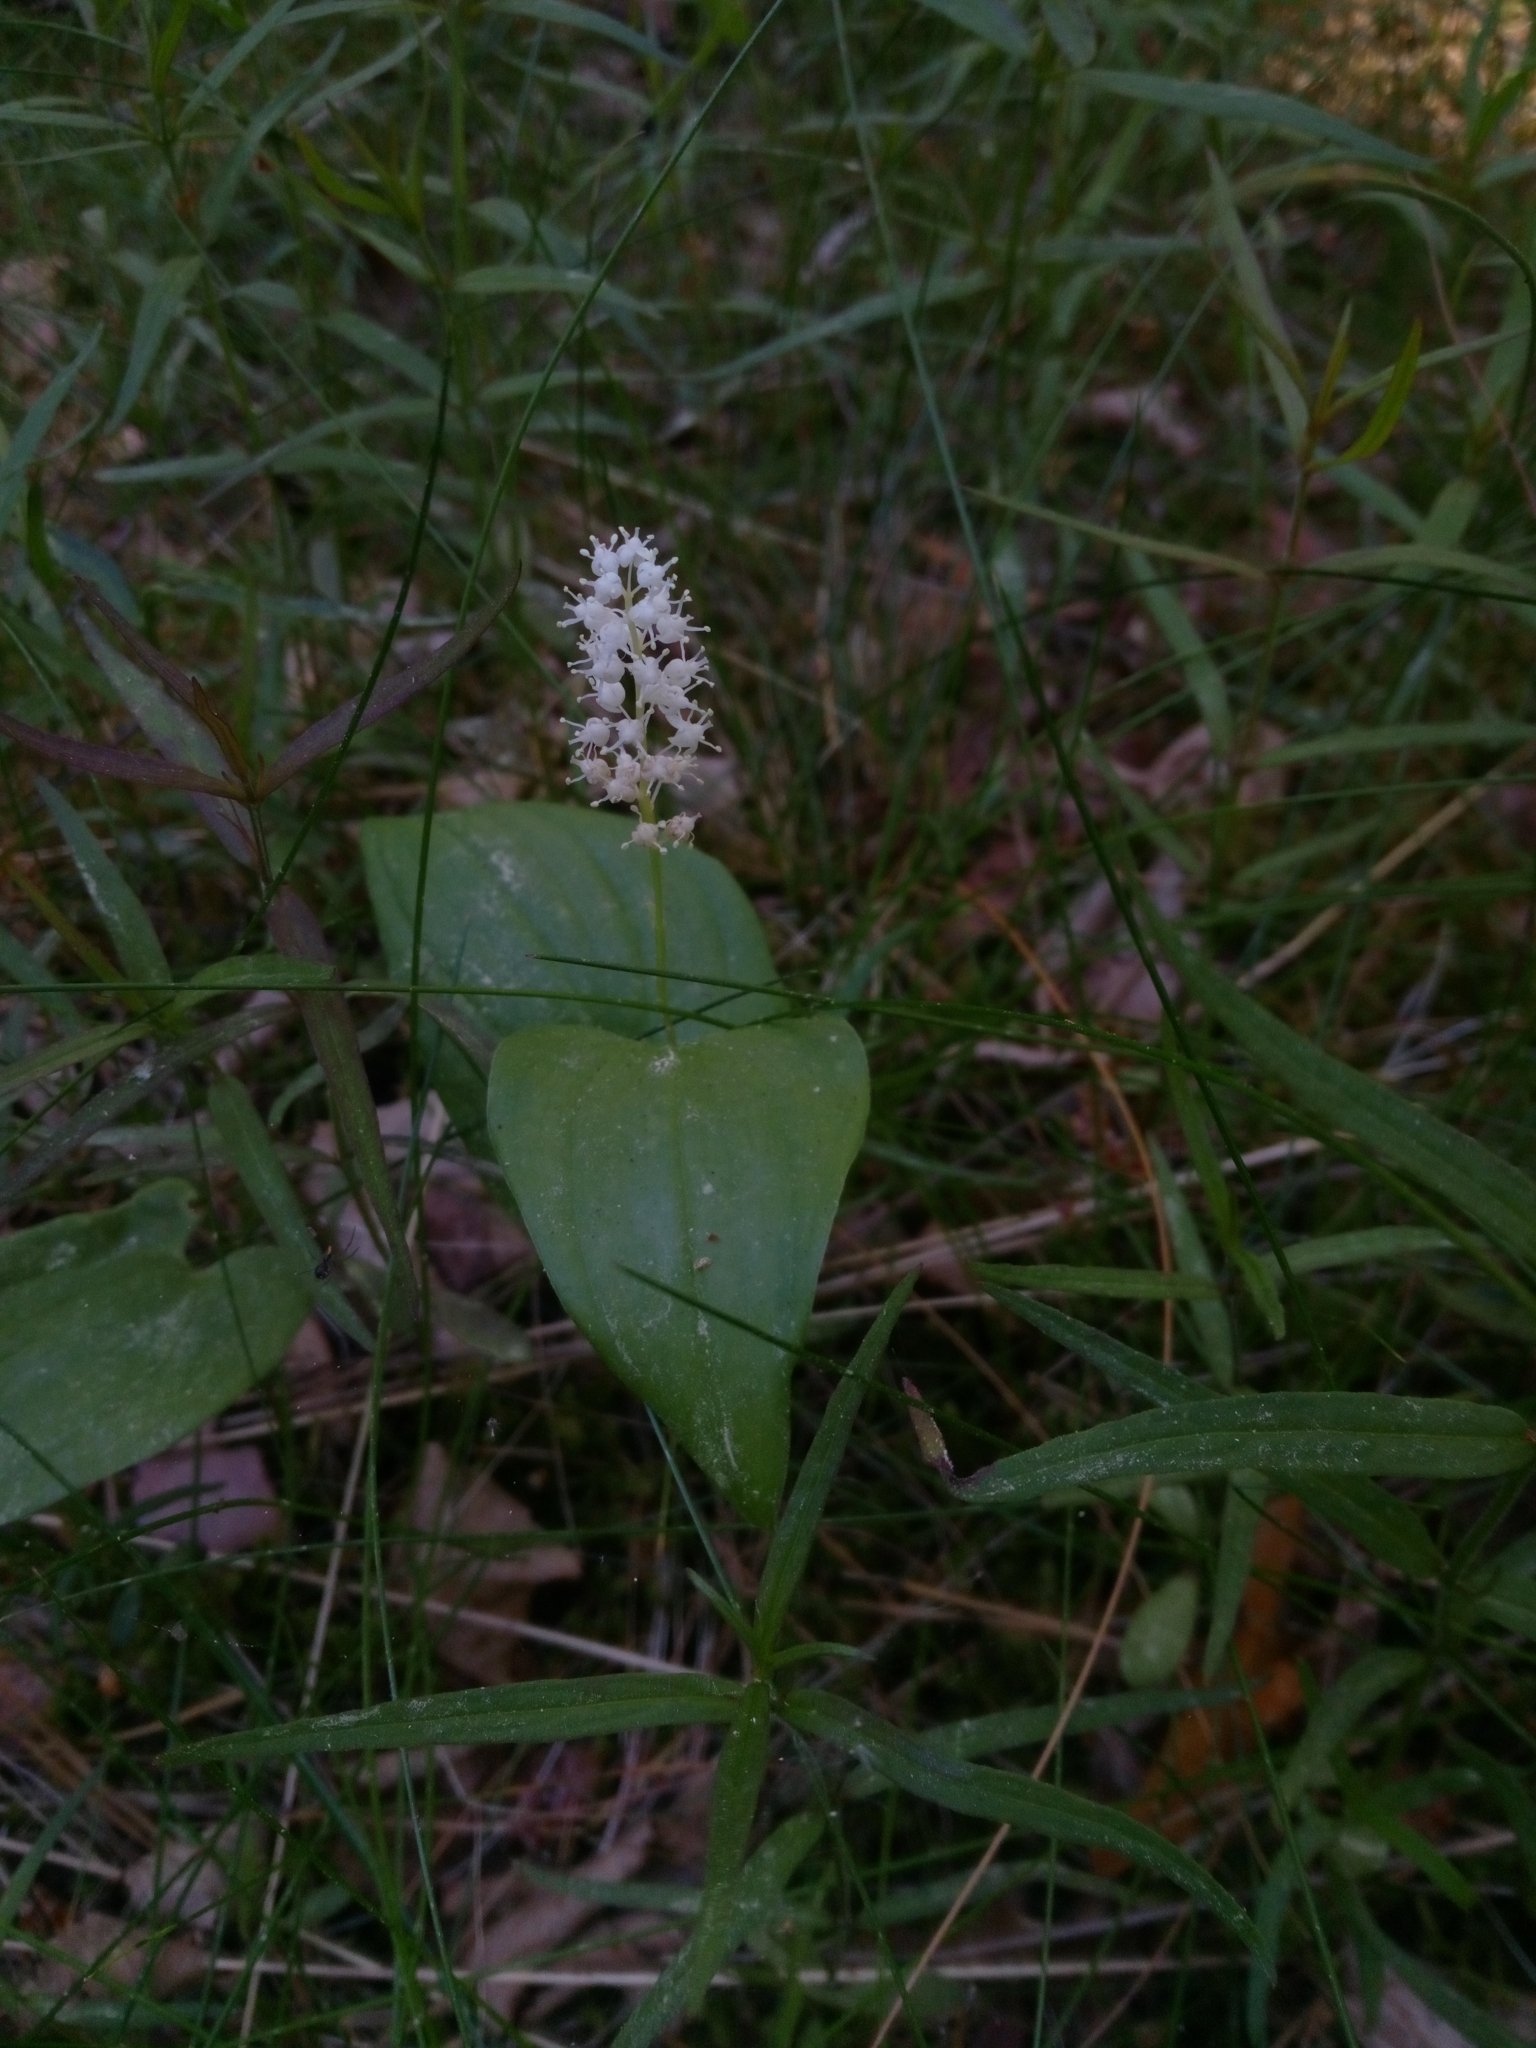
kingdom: Plantae
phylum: Tracheophyta
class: Liliopsida
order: Asparagales
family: Asparagaceae
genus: Maianthemum
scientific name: Maianthemum bifolium
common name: May lily
